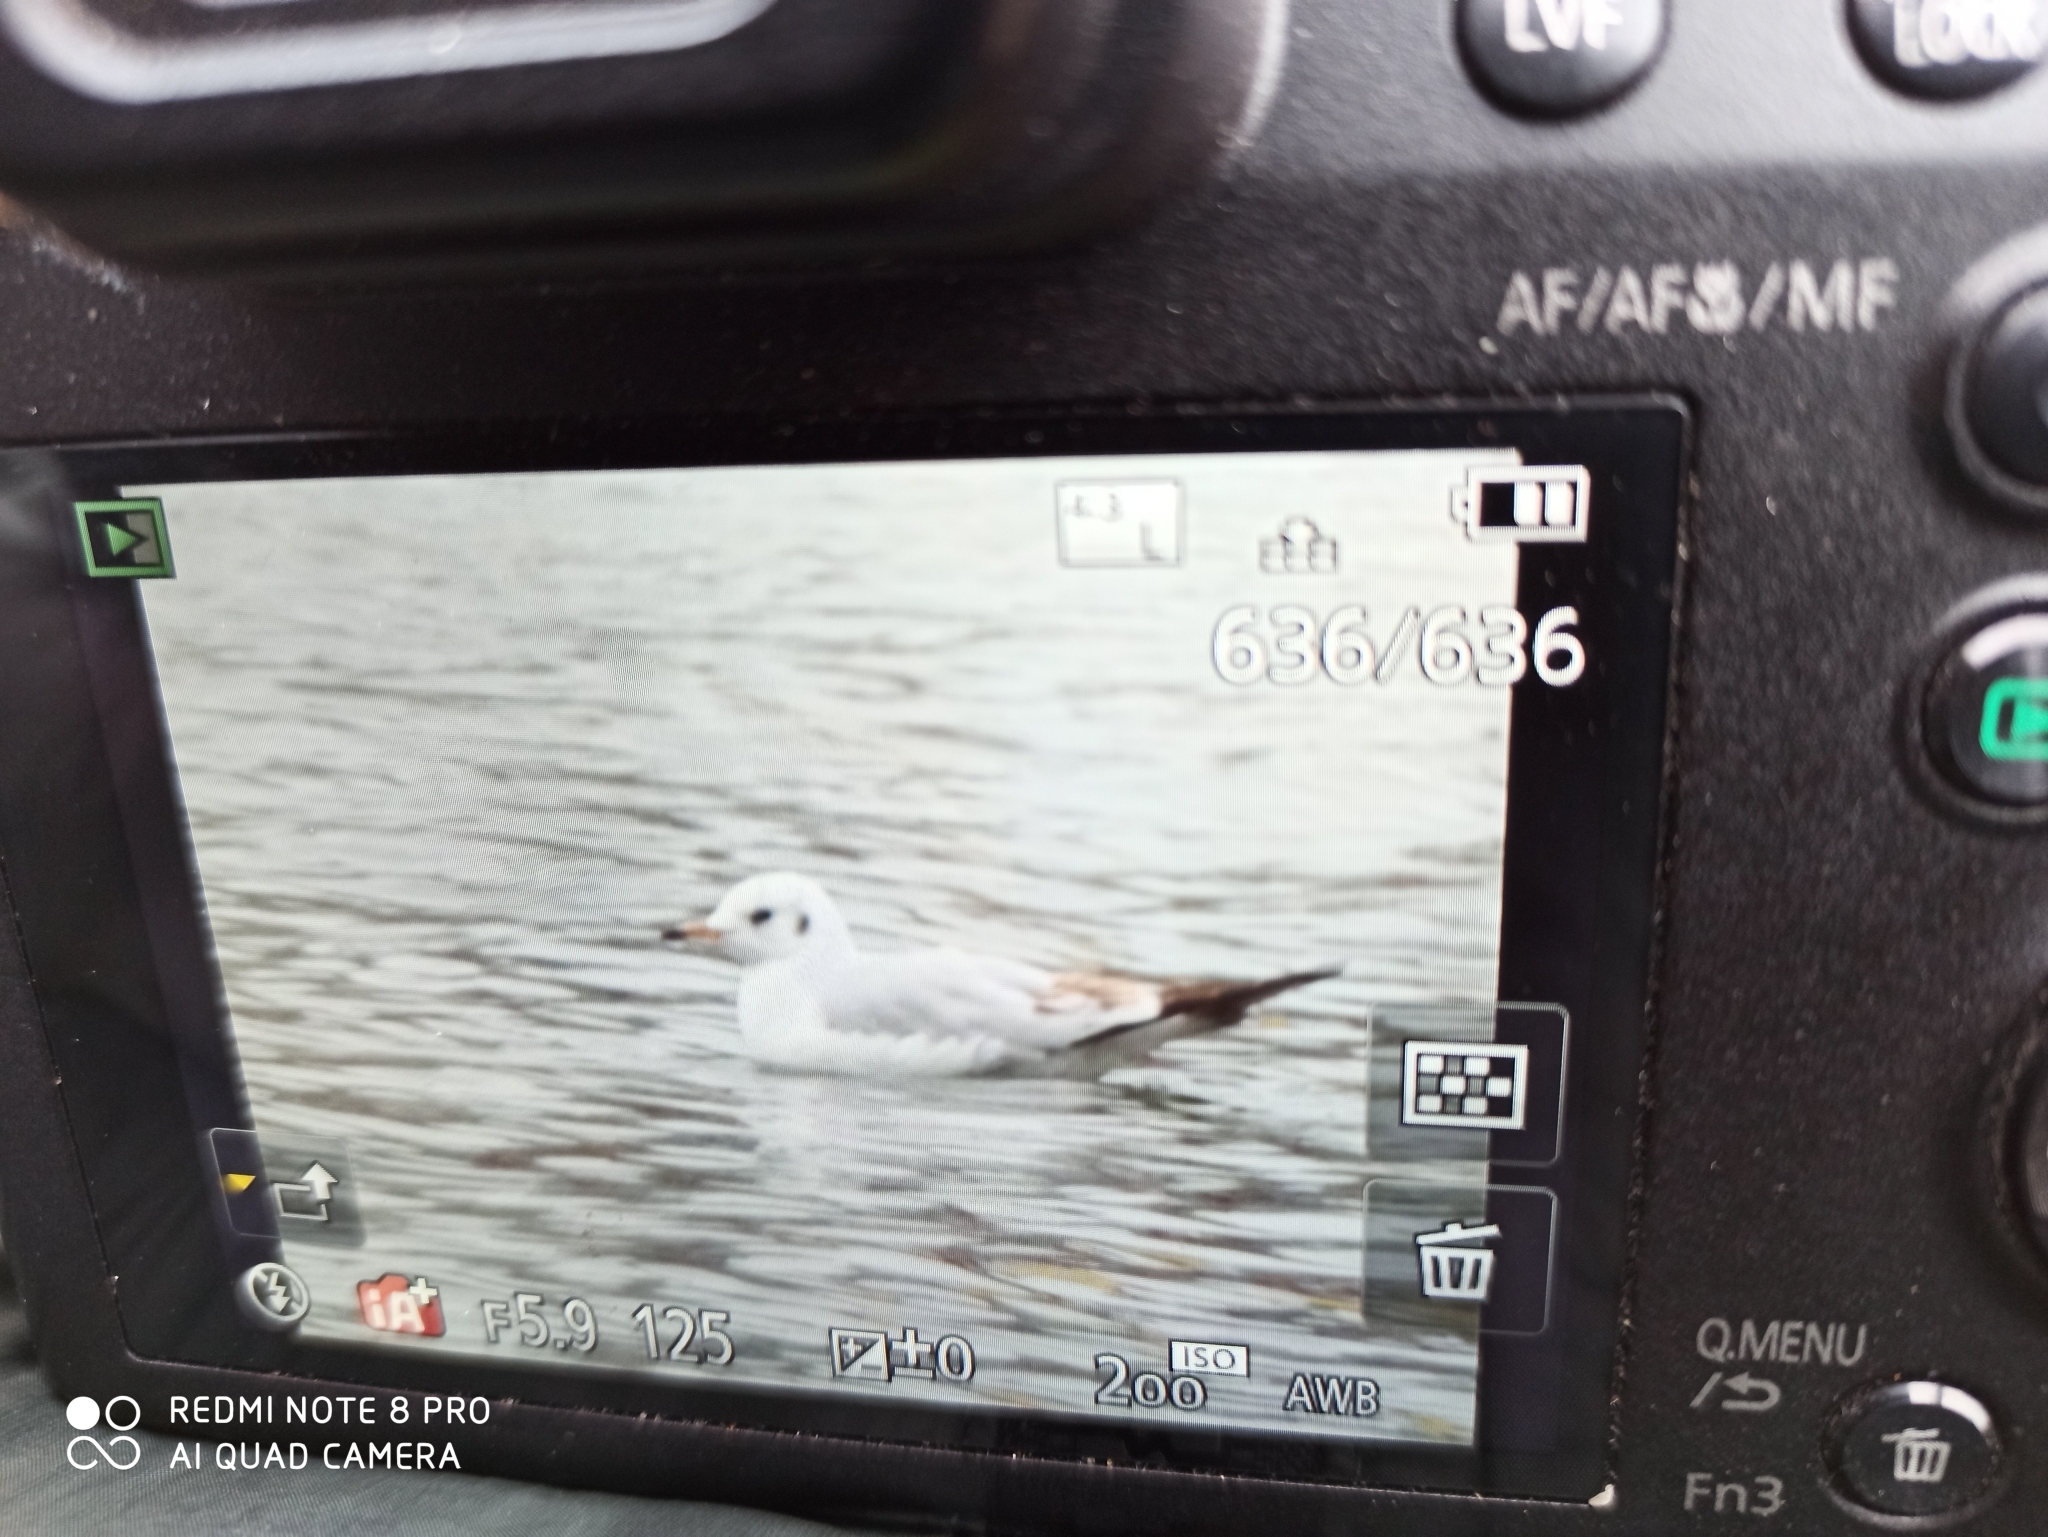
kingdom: Animalia
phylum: Chordata
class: Aves
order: Charadriiformes
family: Laridae
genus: Chroicocephalus
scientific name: Chroicocephalus ridibundus
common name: Black-headed gull
